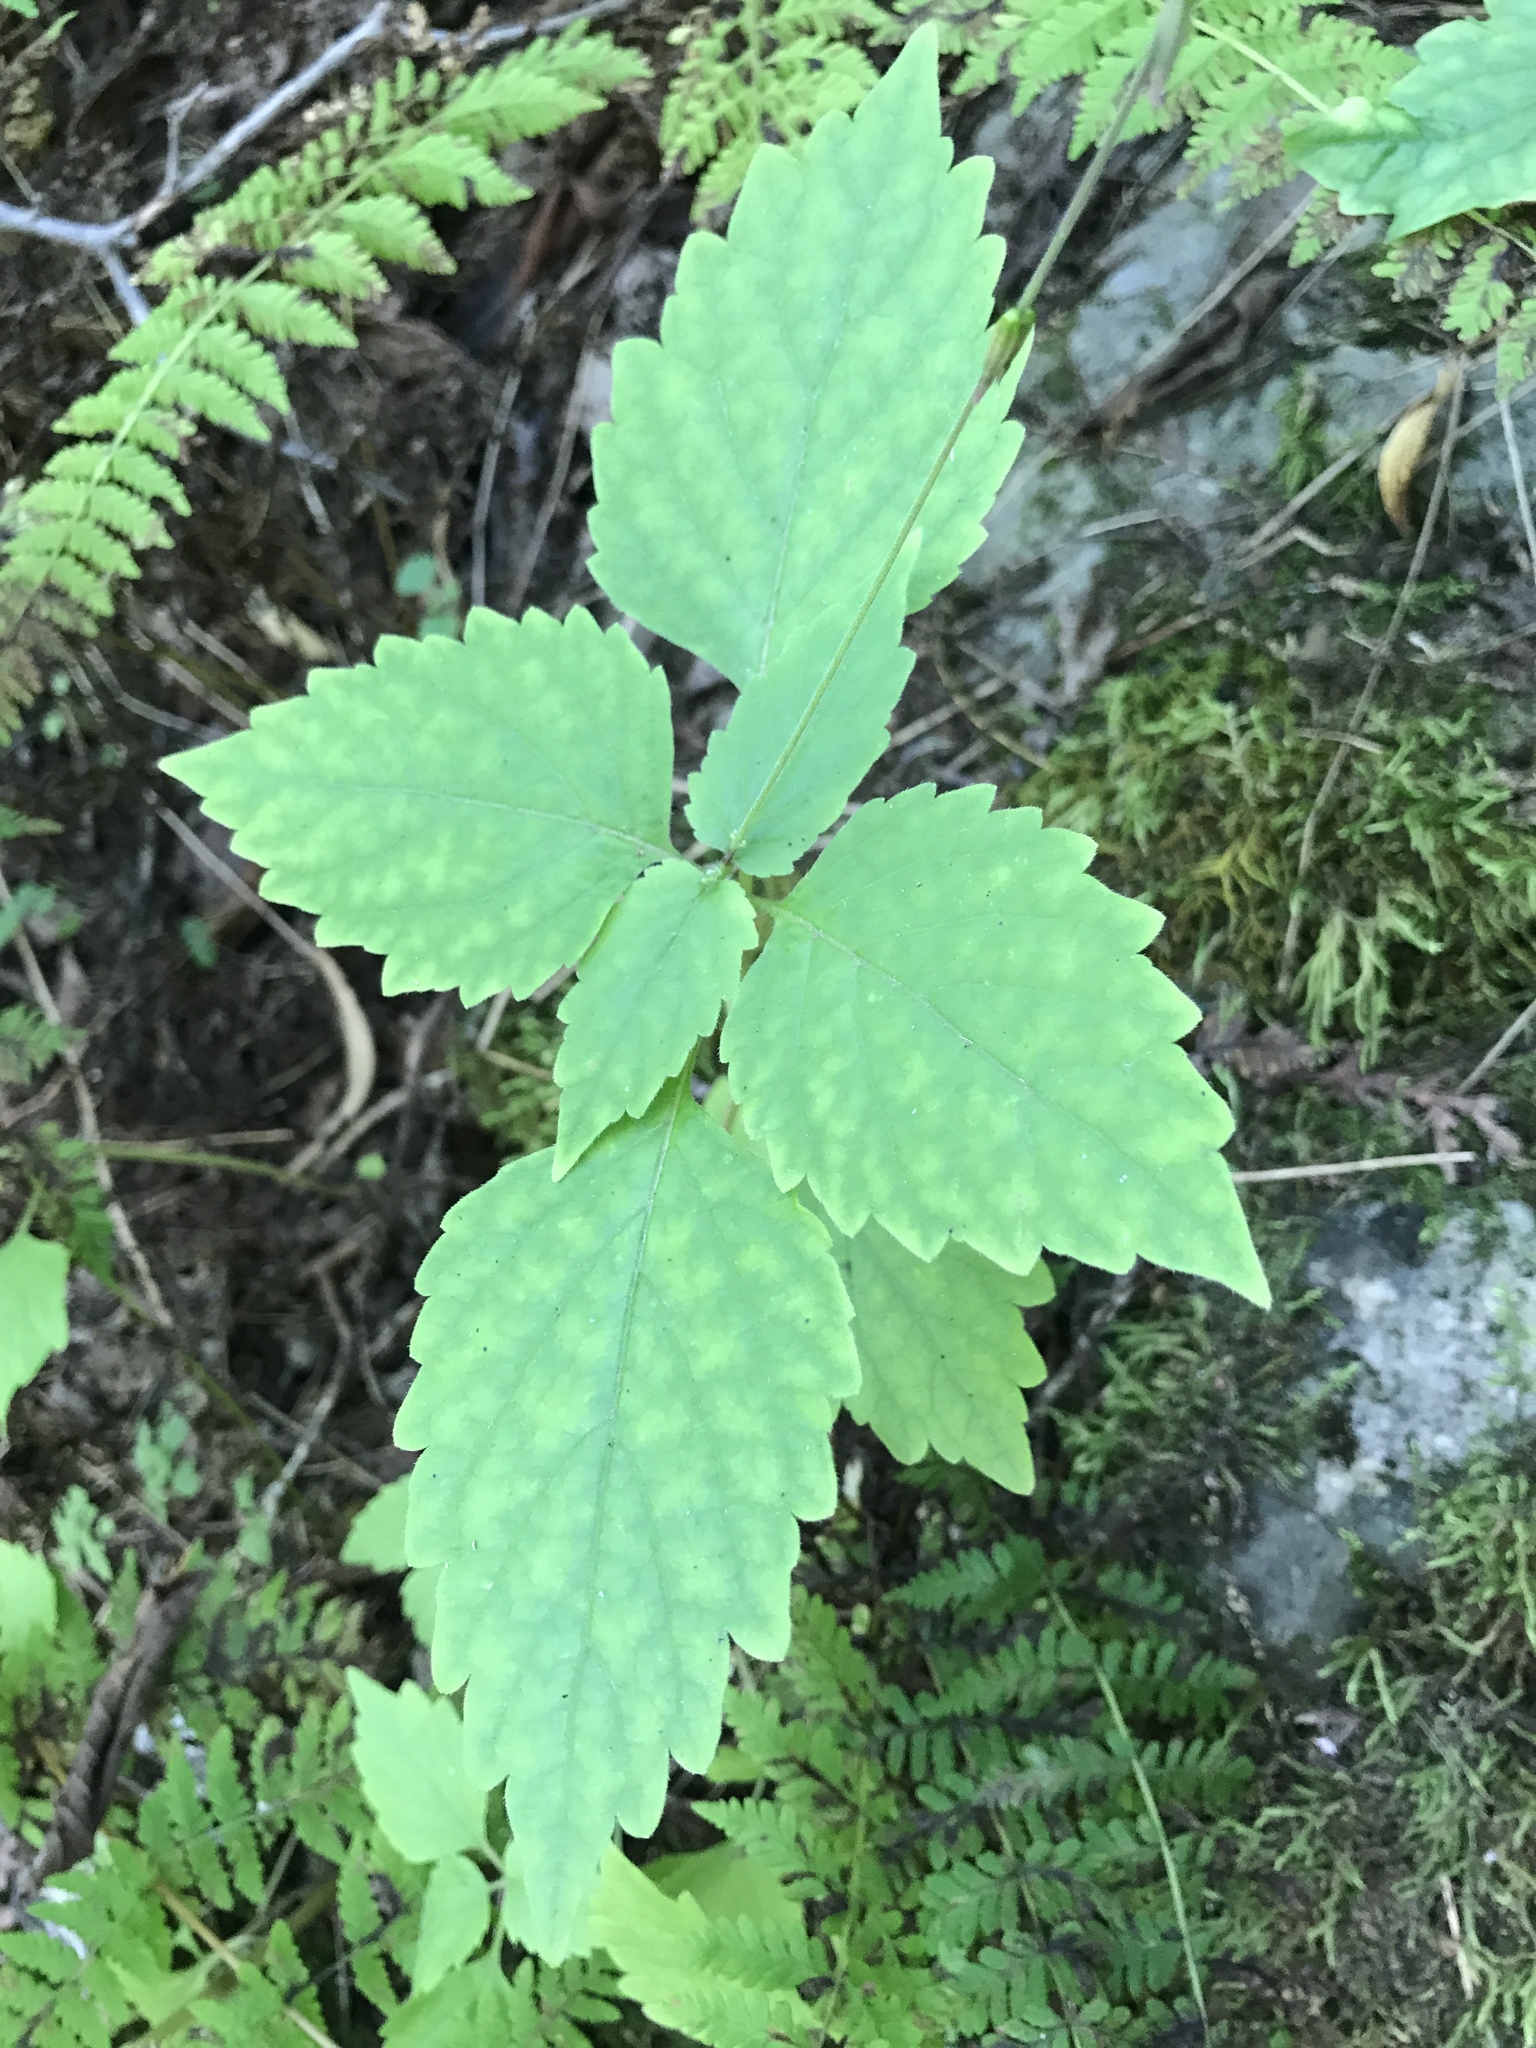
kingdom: Plantae
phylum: Tracheophyta
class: Magnoliopsida
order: Lamiales
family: Phrymaceae
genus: Phryma
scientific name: Phryma leptostachya
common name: American lopseed
